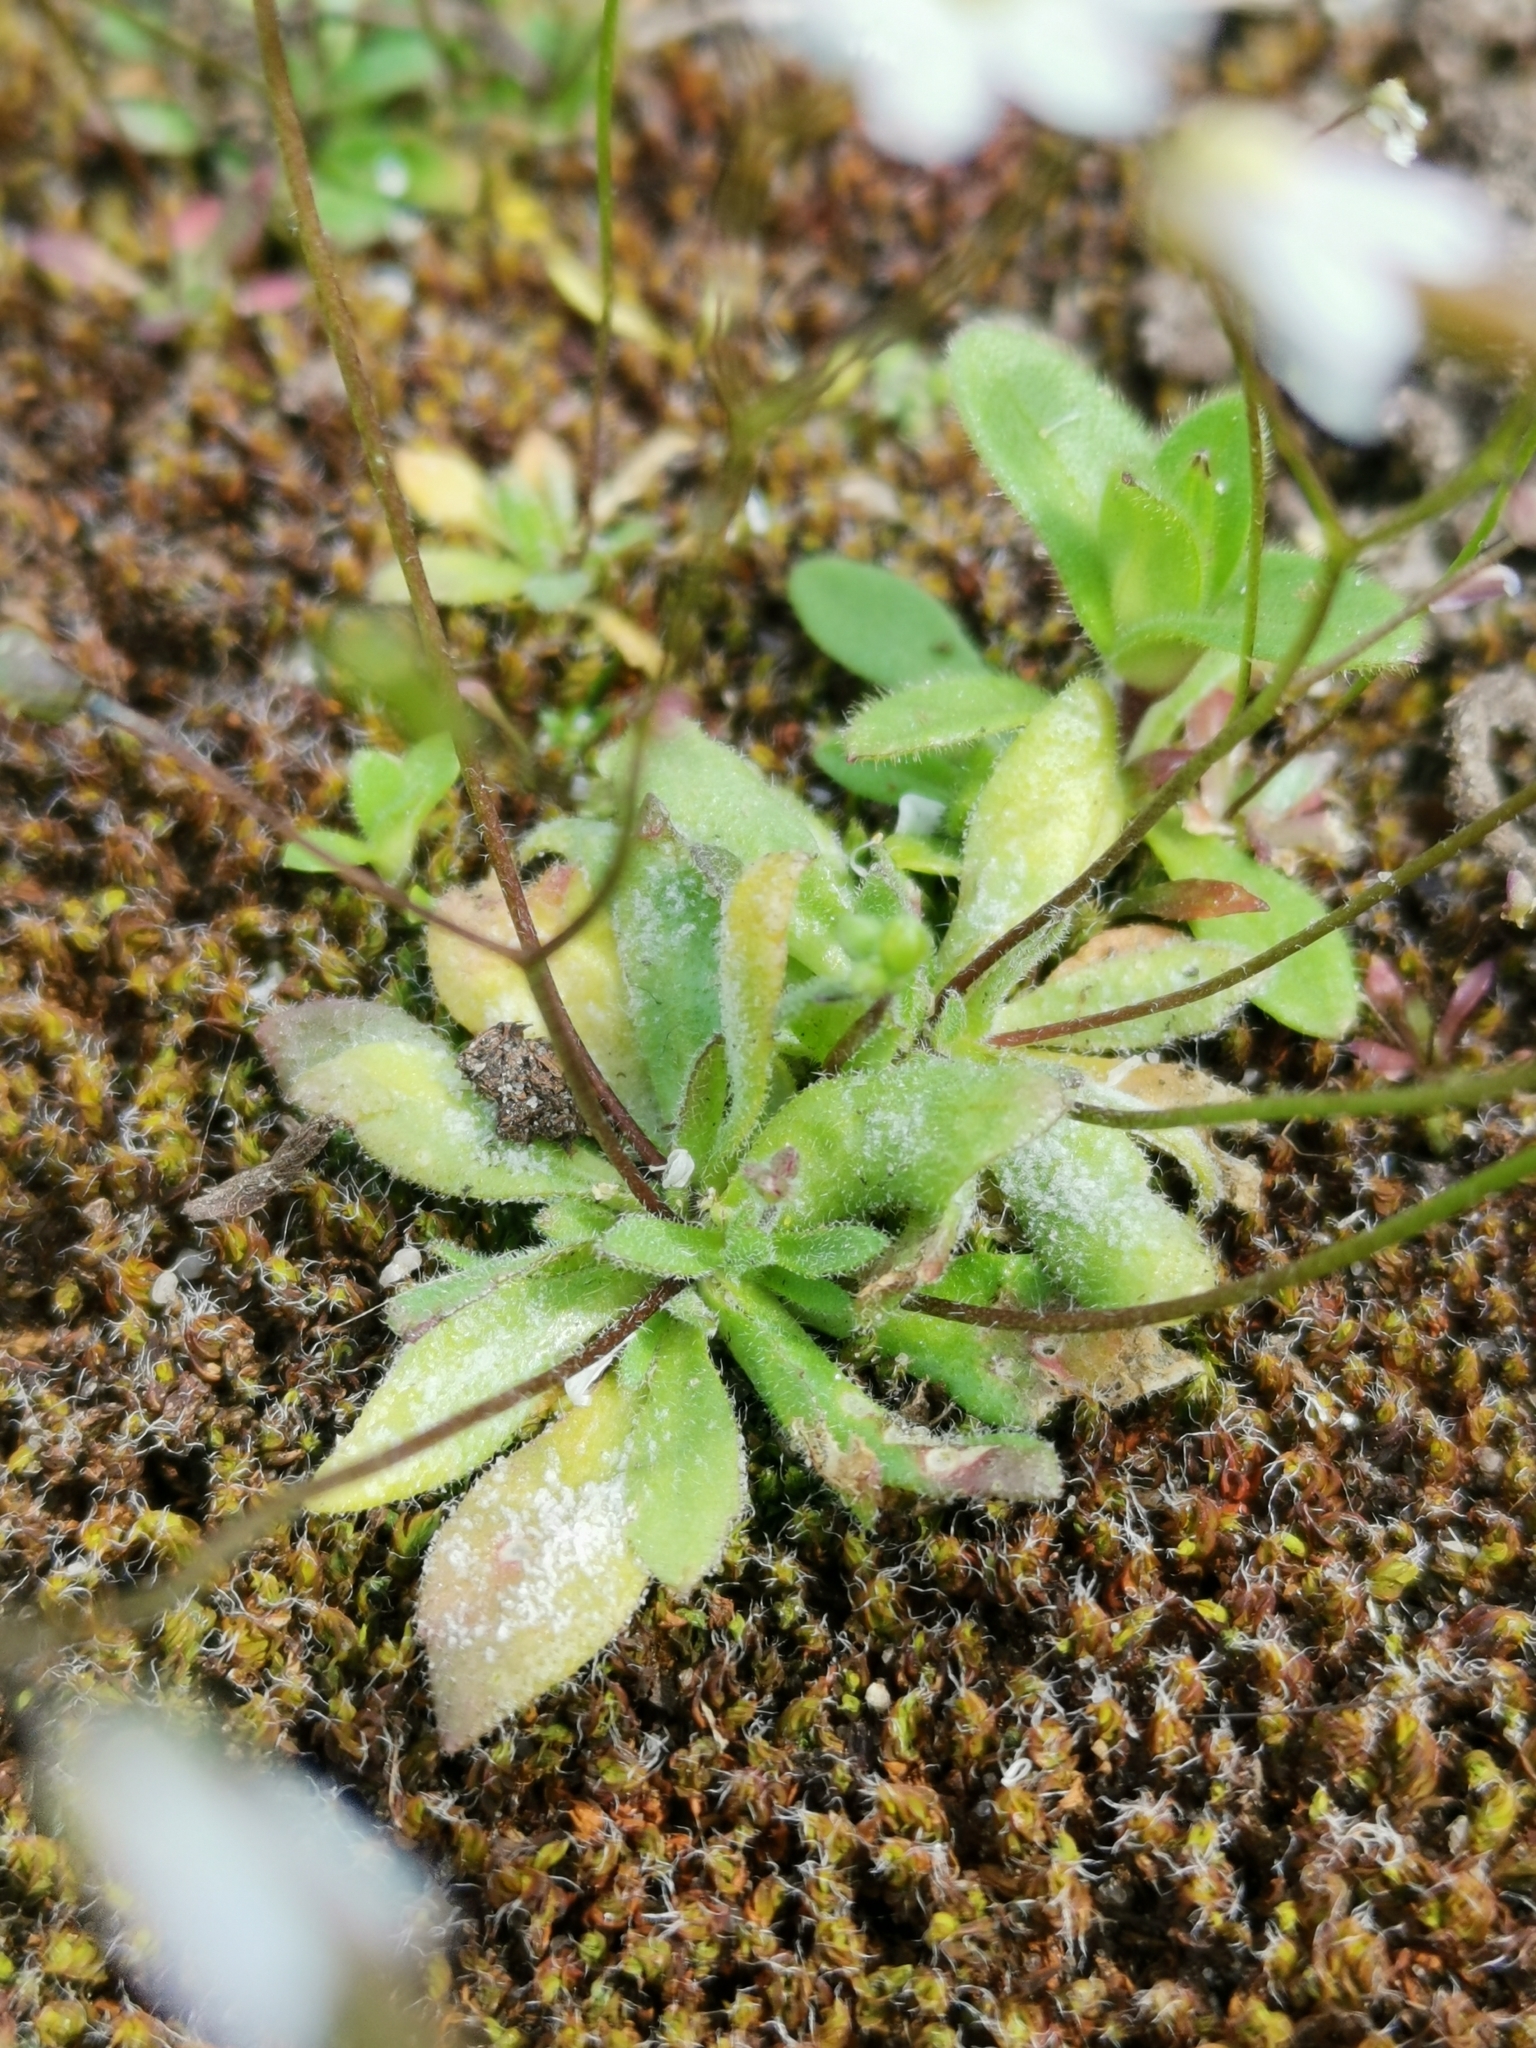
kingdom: Plantae
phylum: Tracheophyta
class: Magnoliopsida
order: Brassicales
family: Brassicaceae
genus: Draba
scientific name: Draba verna
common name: Spring draba
